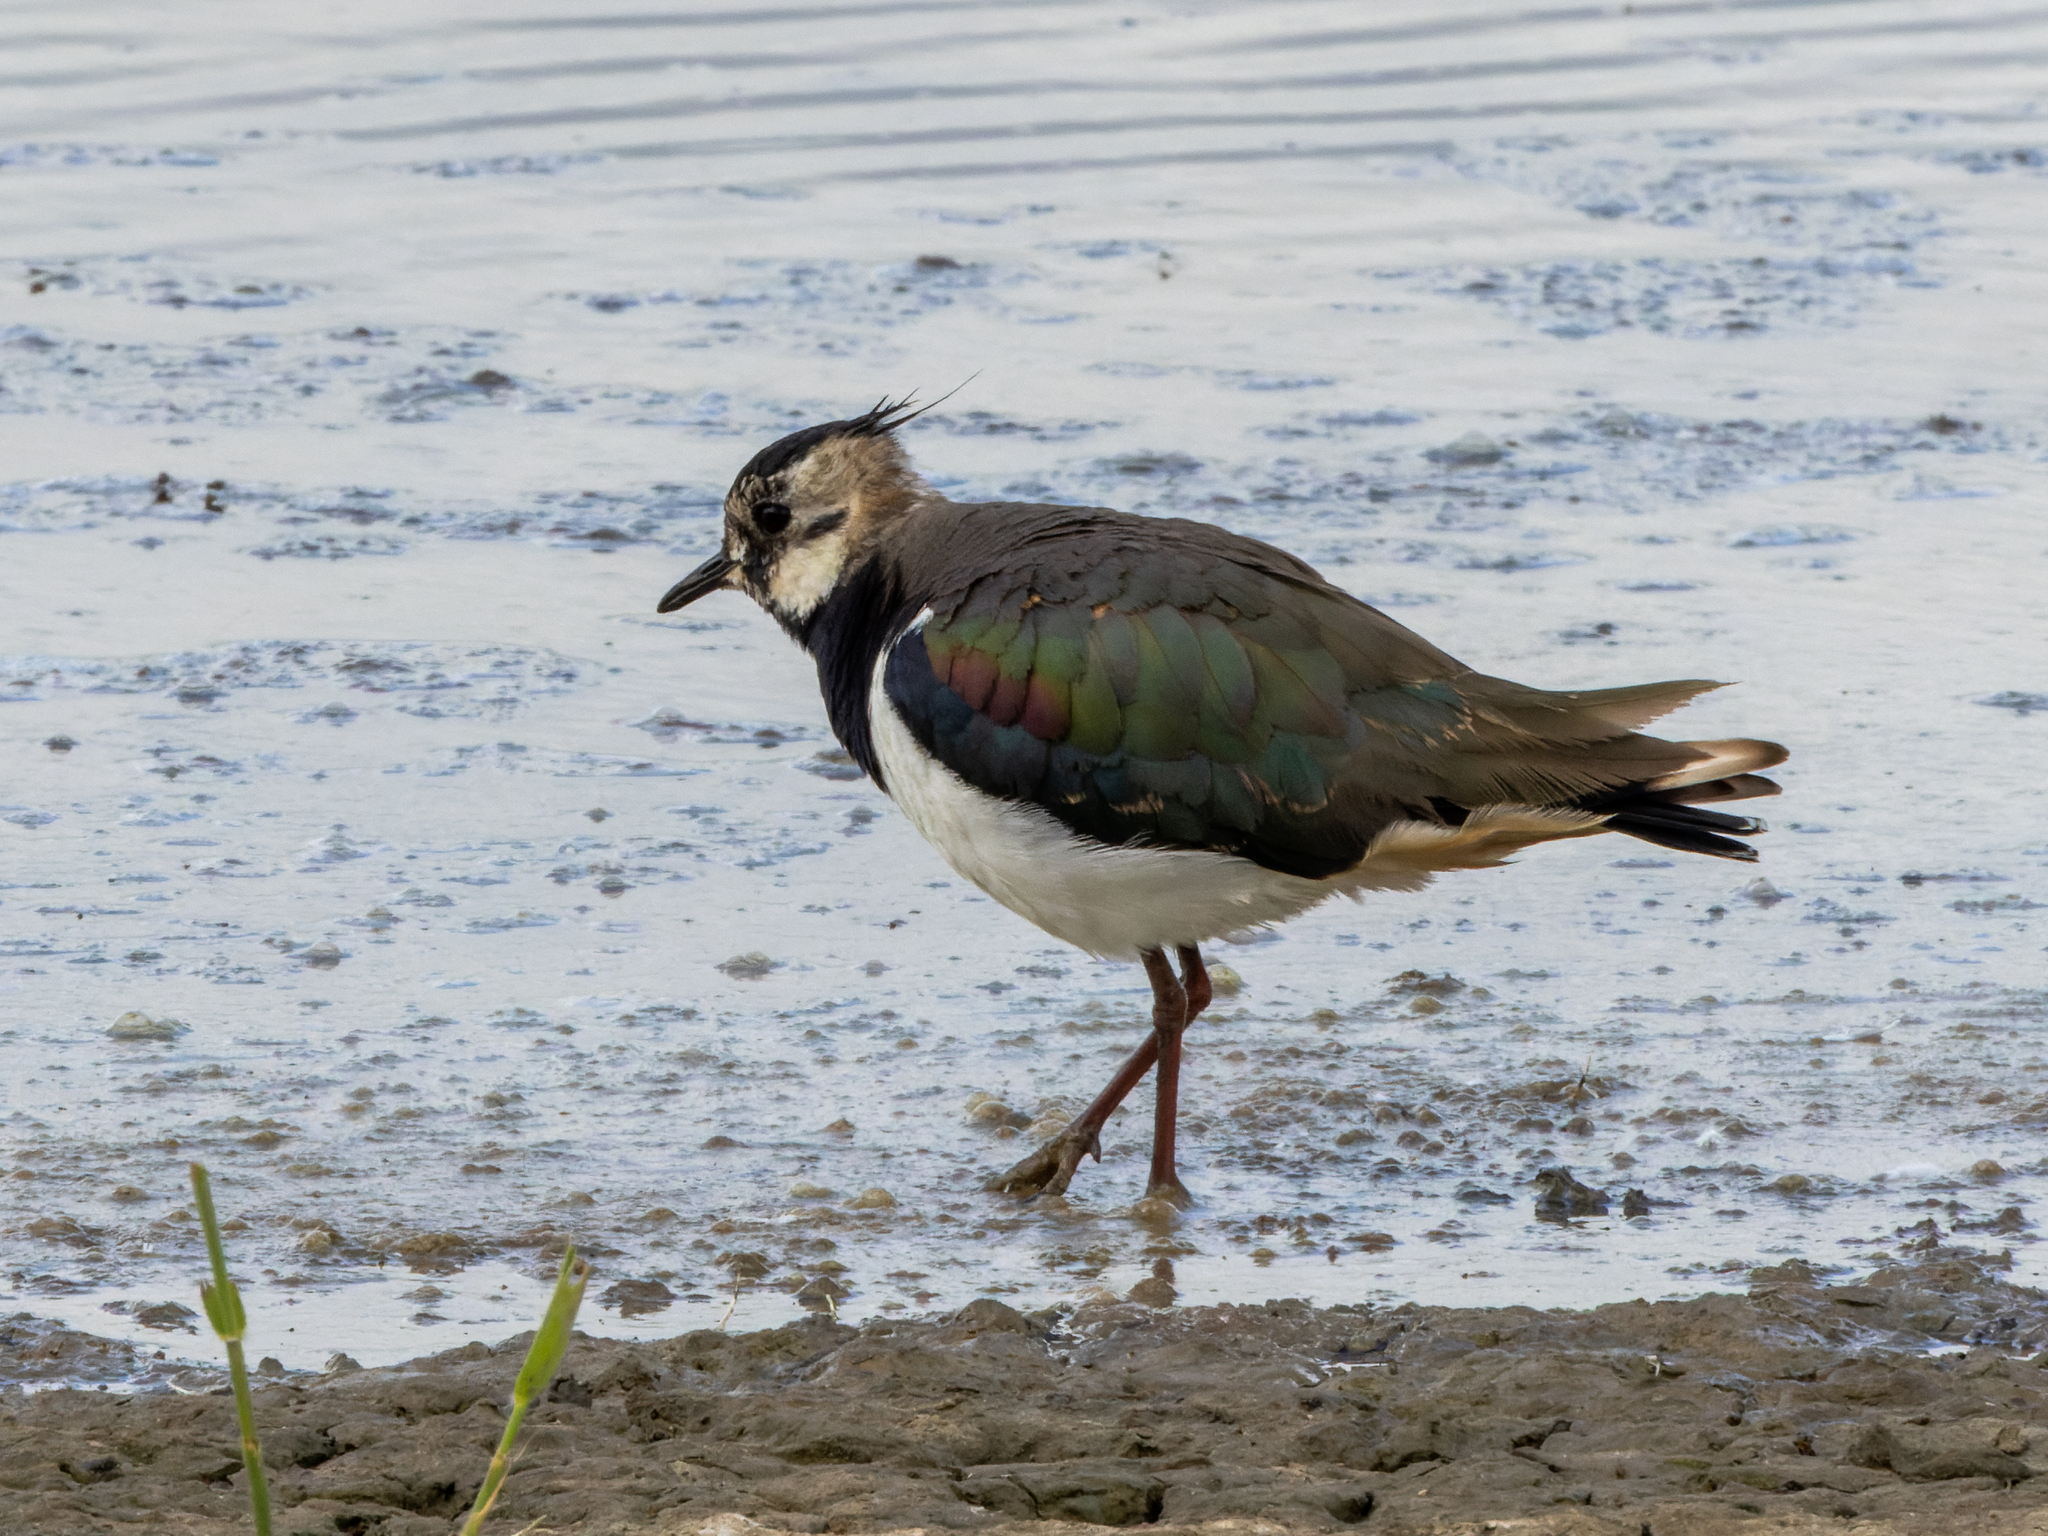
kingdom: Animalia
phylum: Chordata
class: Aves
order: Charadriiformes
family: Charadriidae
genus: Vanellus
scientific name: Vanellus vanellus
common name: Northern lapwing
